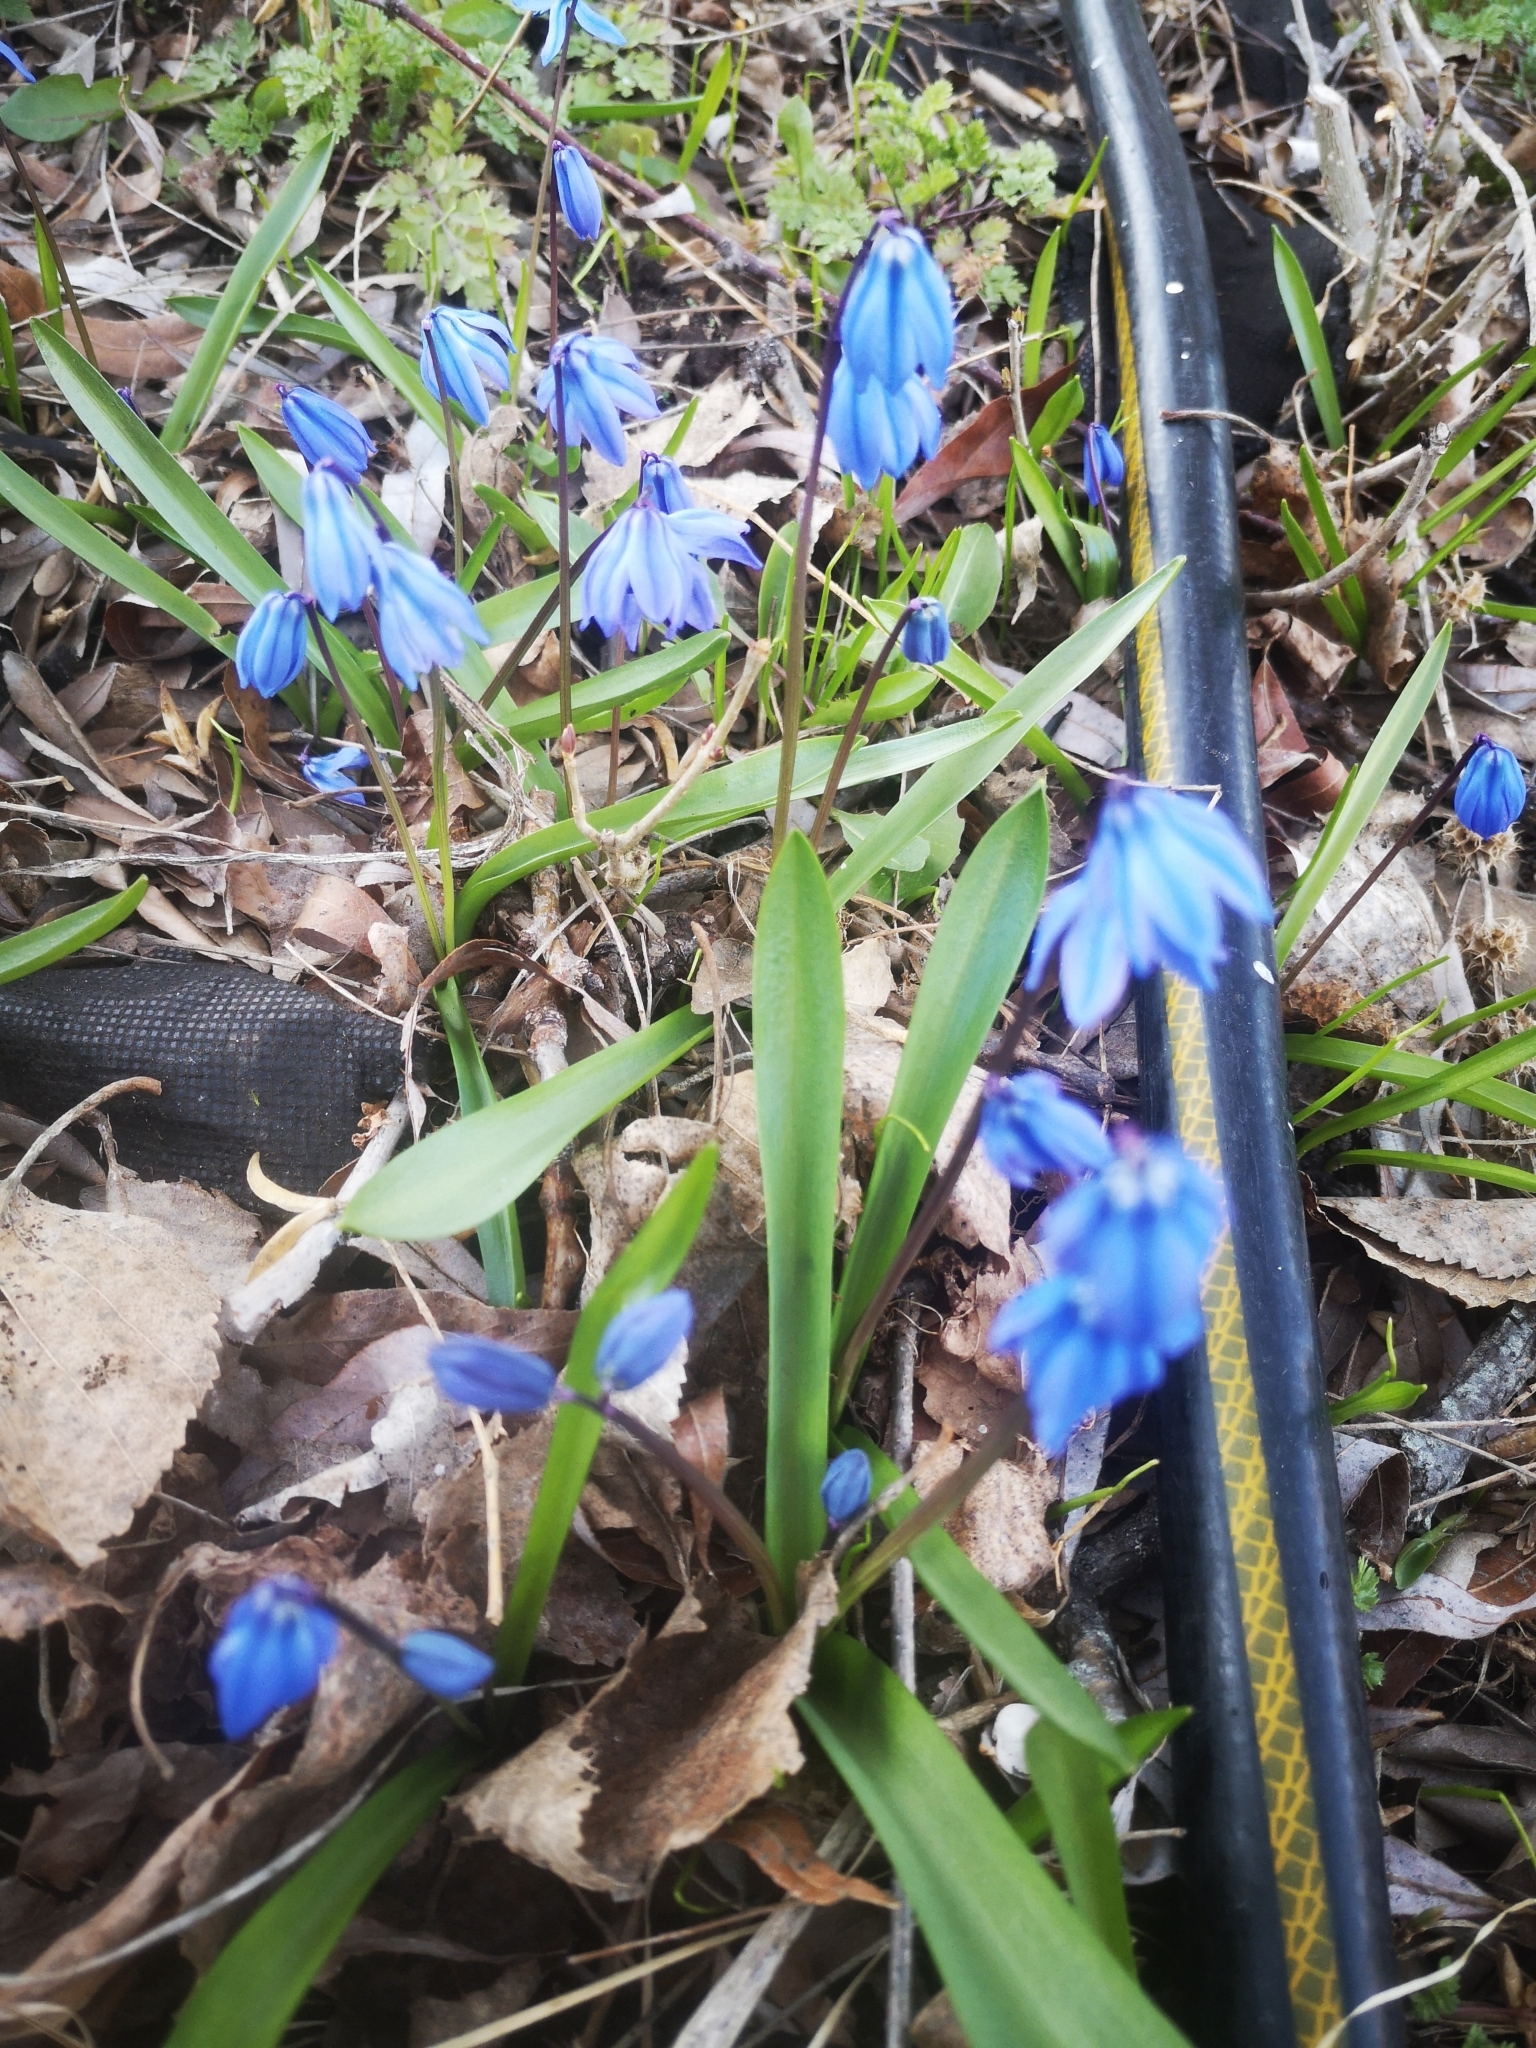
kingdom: Plantae
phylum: Tracheophyta
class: Liliopsida
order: Asparagales
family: Asparagaceae
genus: Scilla
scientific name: Scilla siberica
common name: Siberian squill
